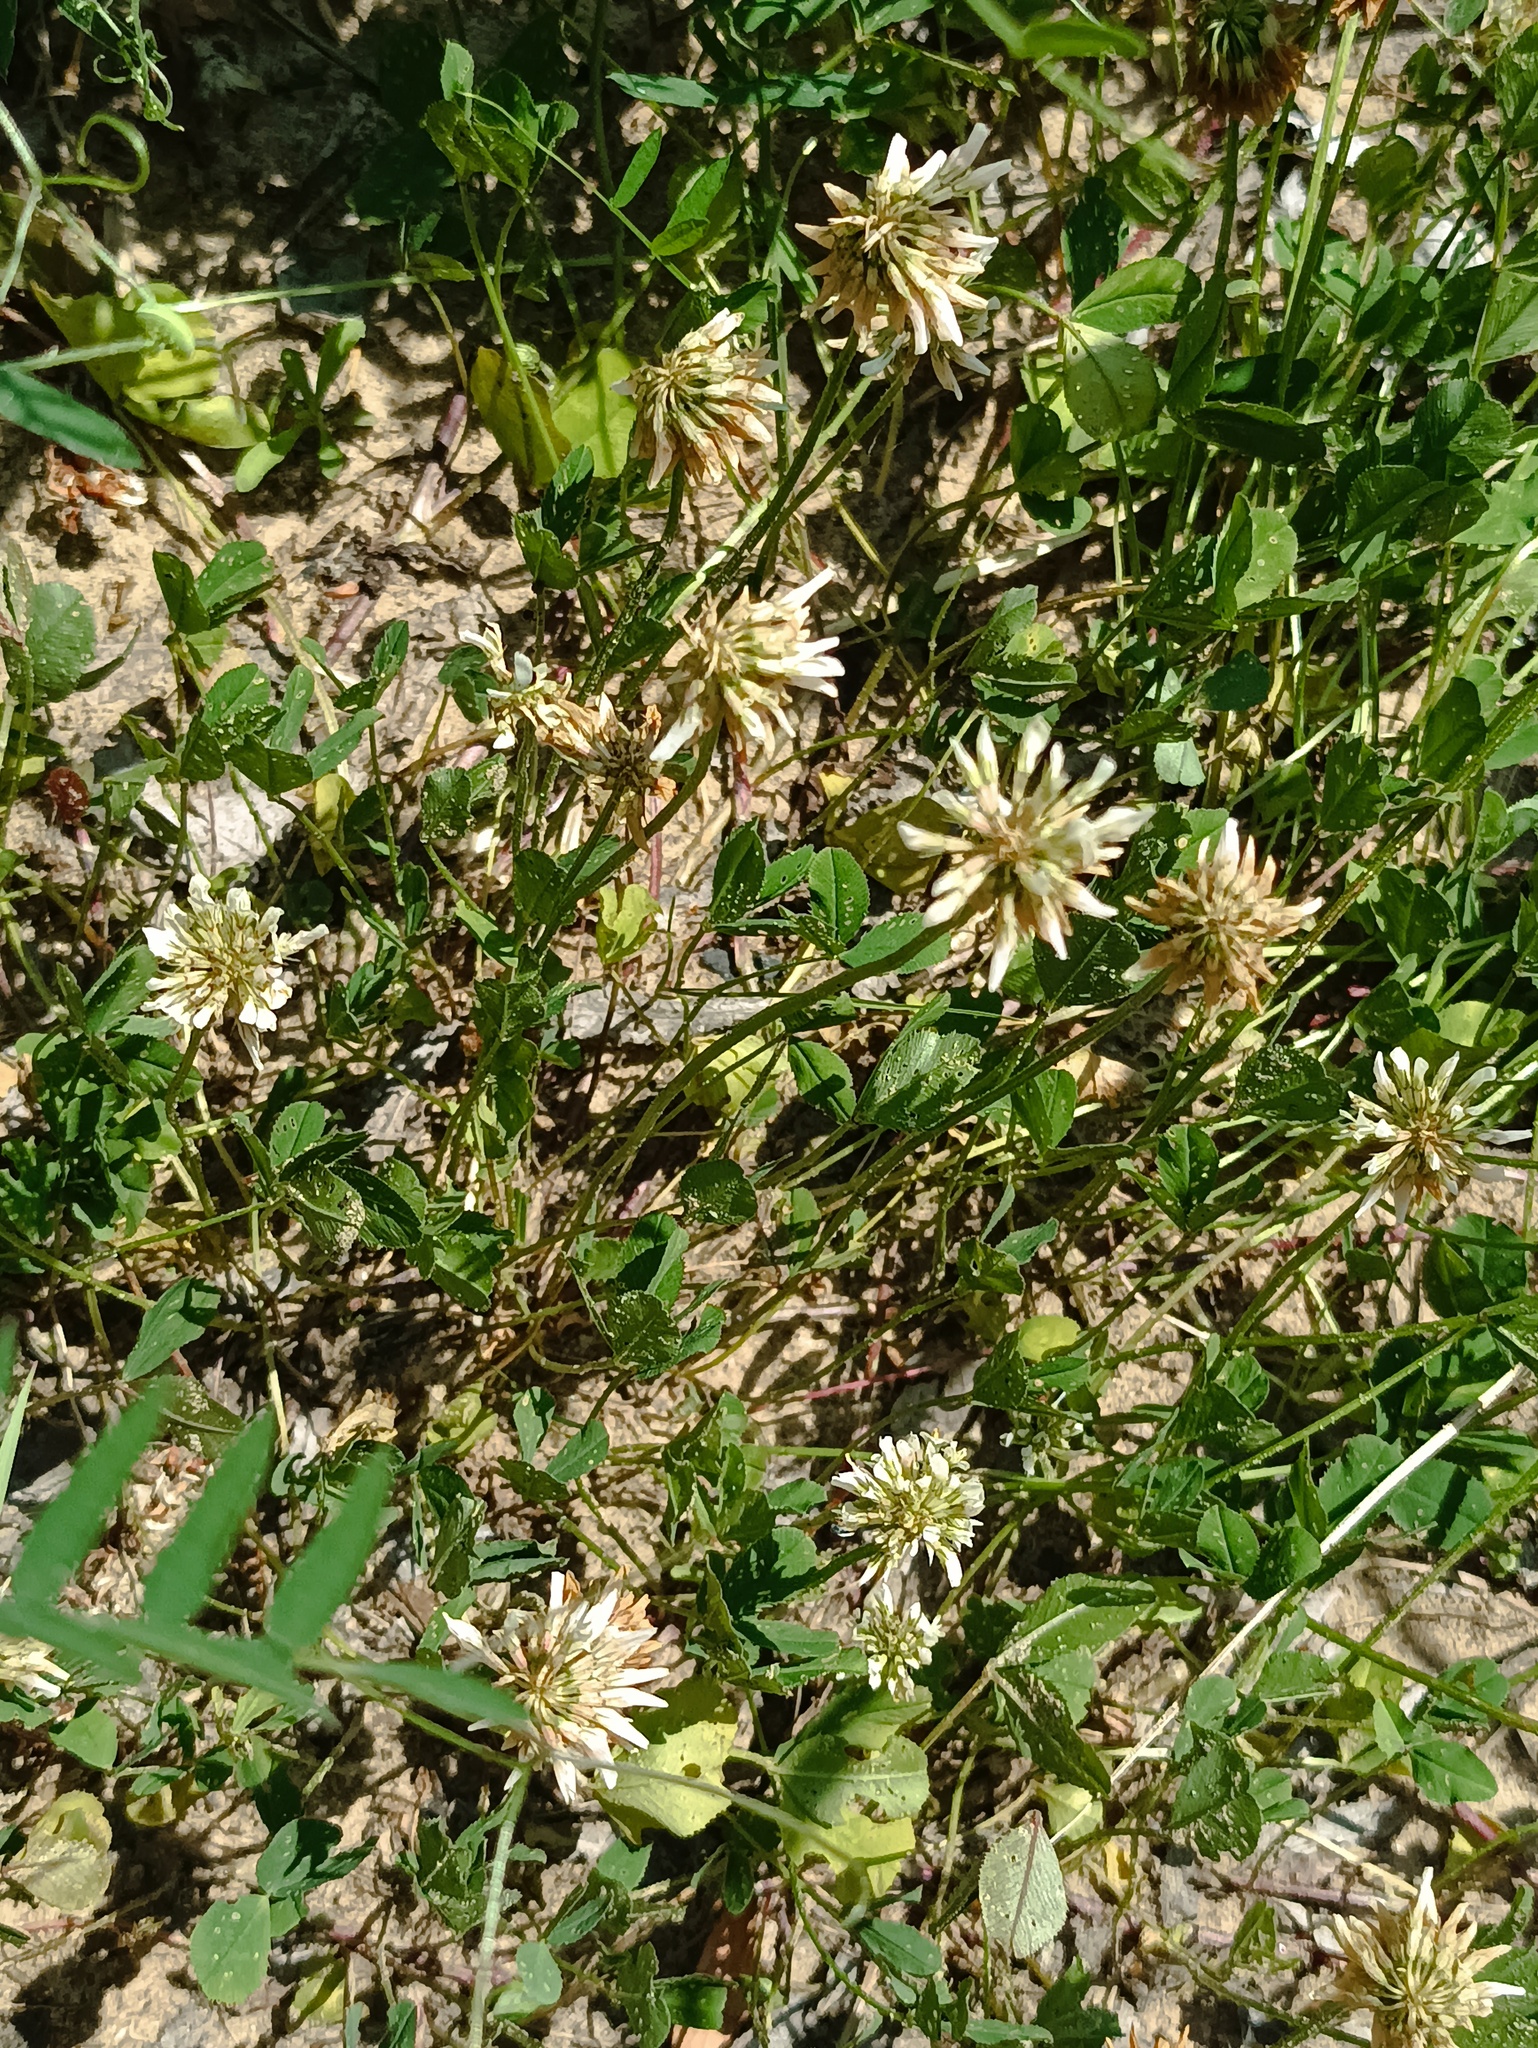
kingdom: Plantae
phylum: Tracheophyta
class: Magnoliopsida
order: Fabales
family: Fabaceae
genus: Trifolium
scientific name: Trifolium repens
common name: White clover
